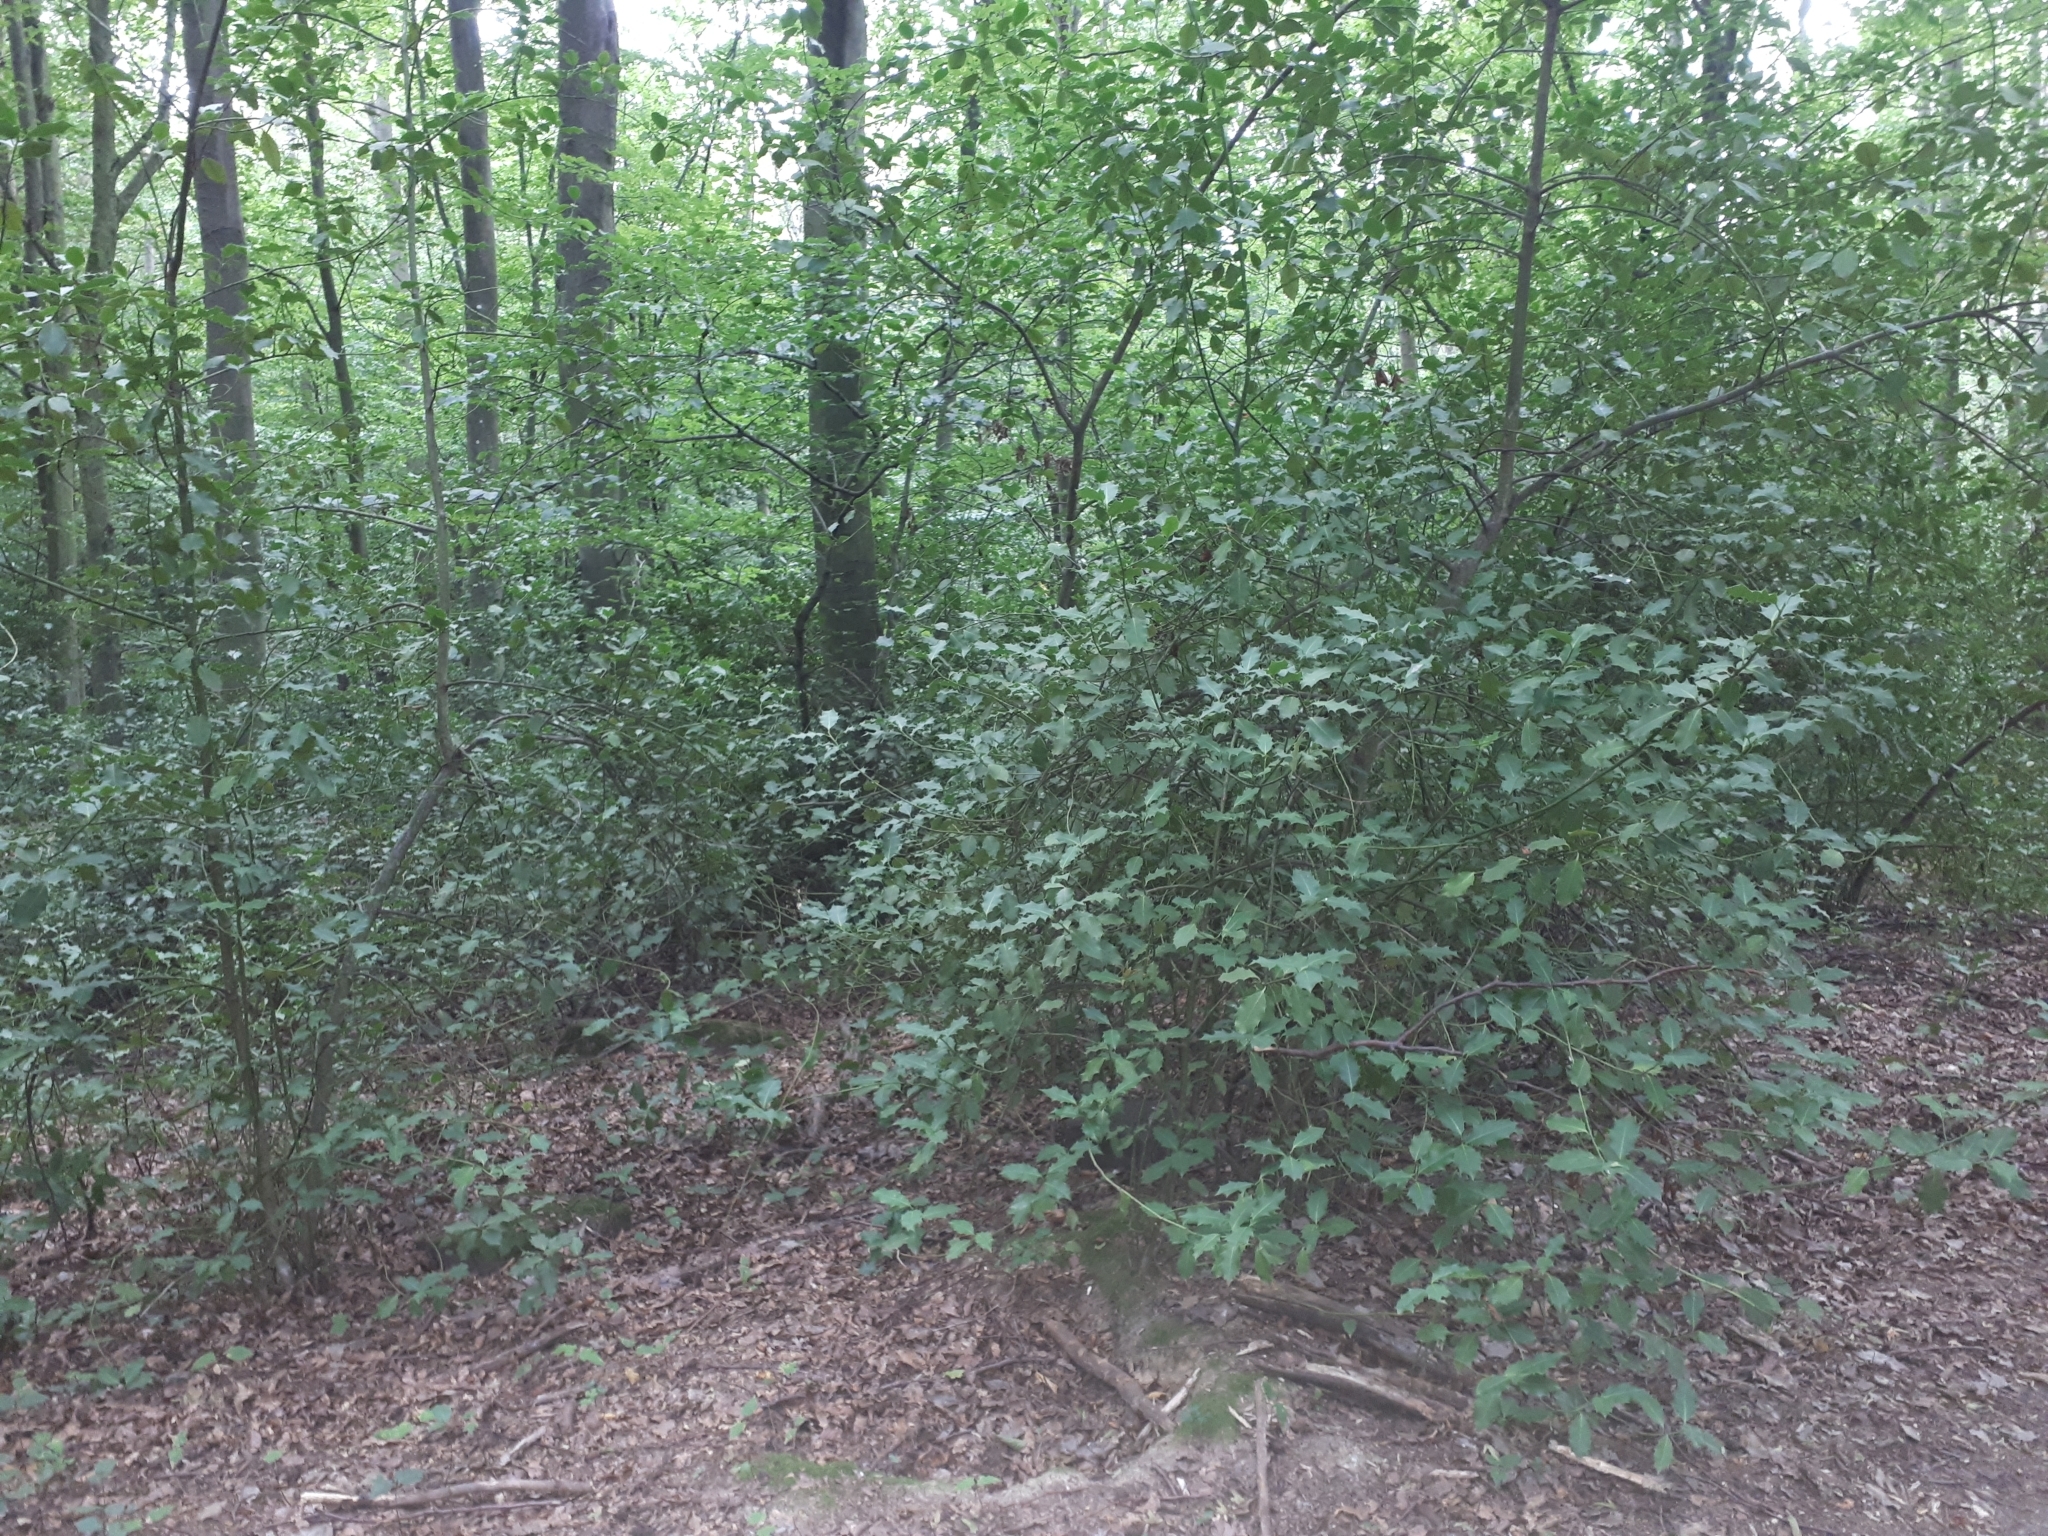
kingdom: Plantae
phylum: Tracheophyta
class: Magnoliopsida
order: Aquifoliales
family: Aquifoliaceae
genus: Ilex
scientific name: Ilex aquifolium
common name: English holly
